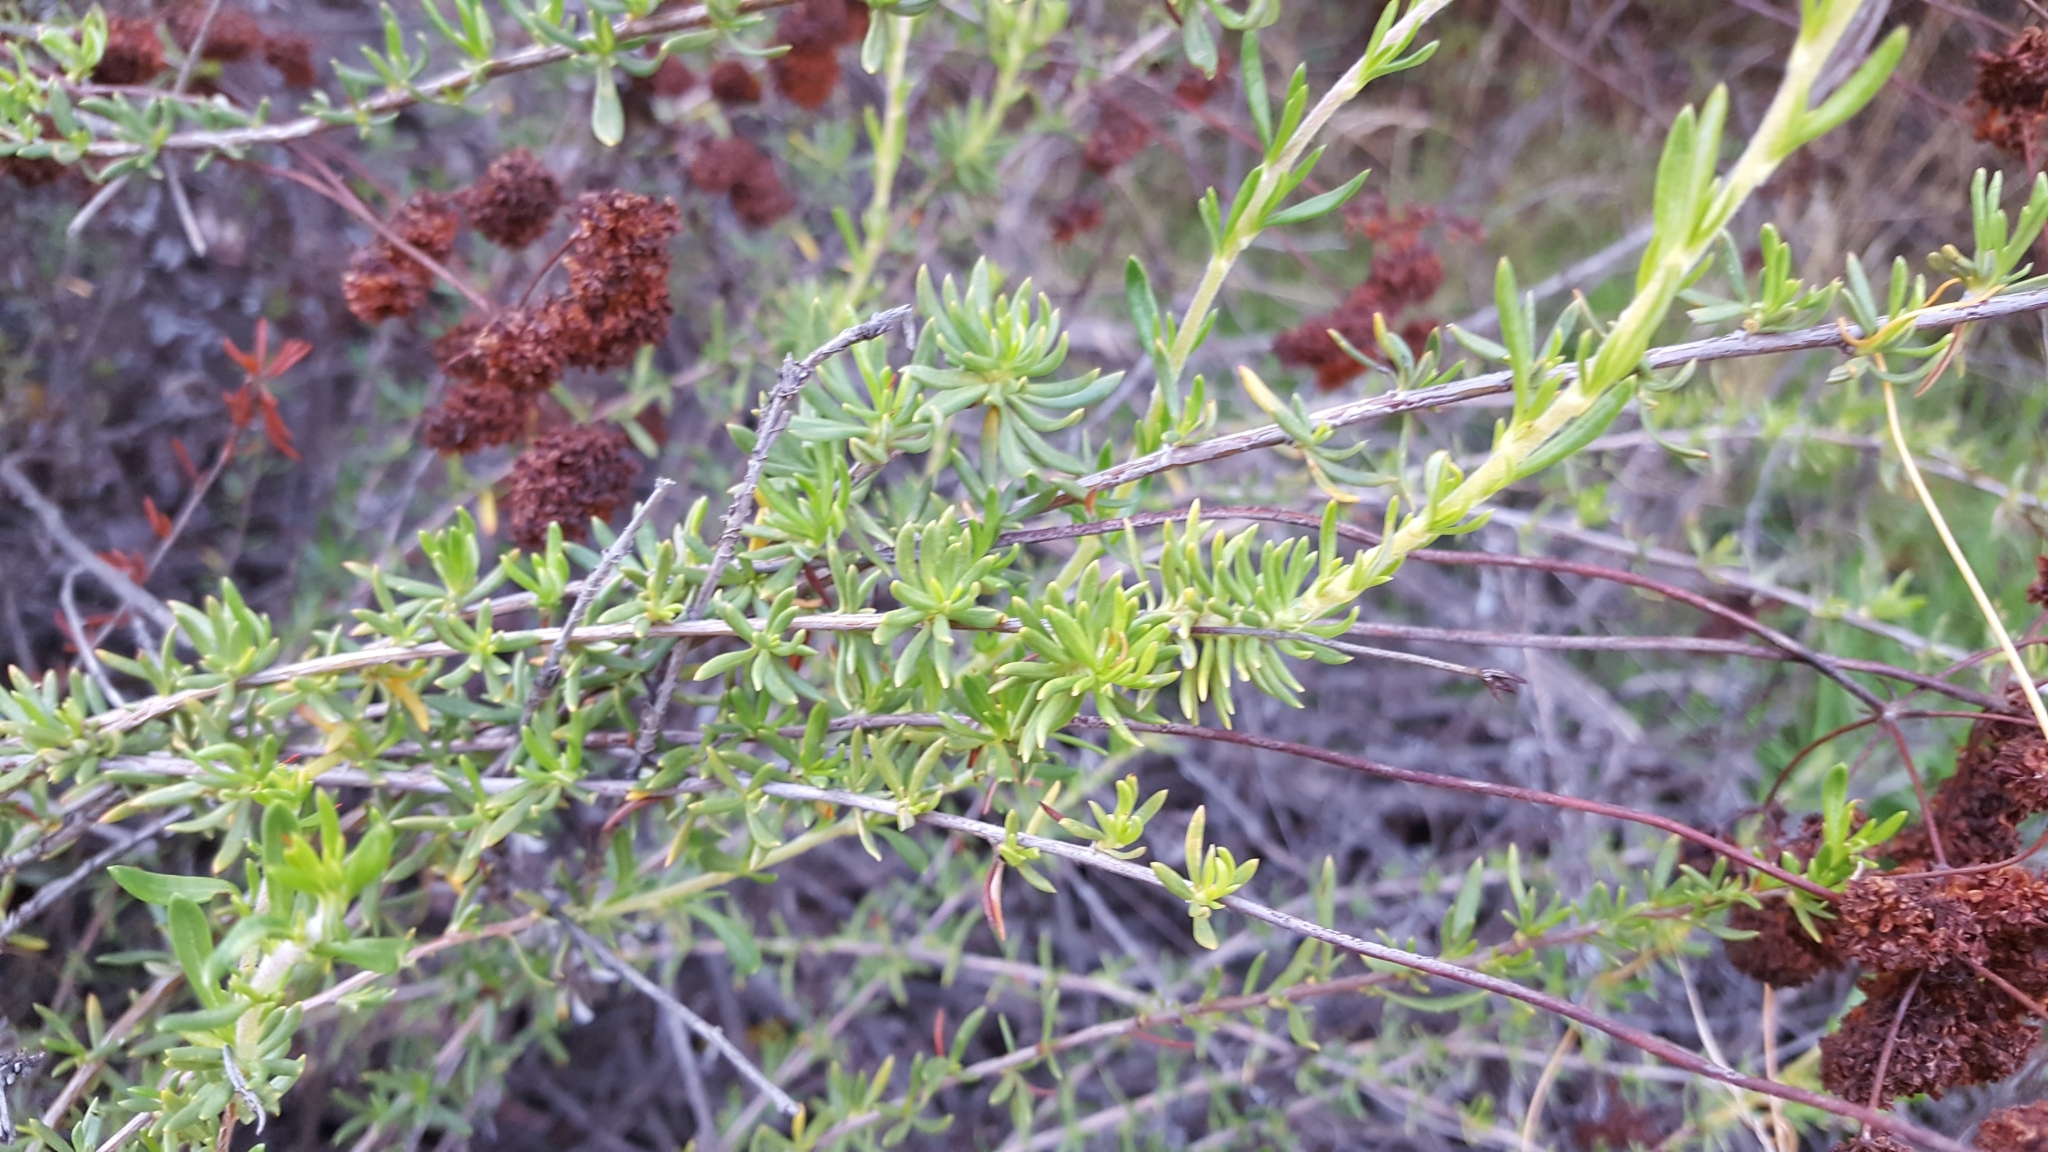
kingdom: Plantae
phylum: Tracheophyta
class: Magnoliopsida
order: Caryophyllales
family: Polygonaceae
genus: Eriogonum
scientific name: Eriogonum fasciculatum
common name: California wild buckwheat
